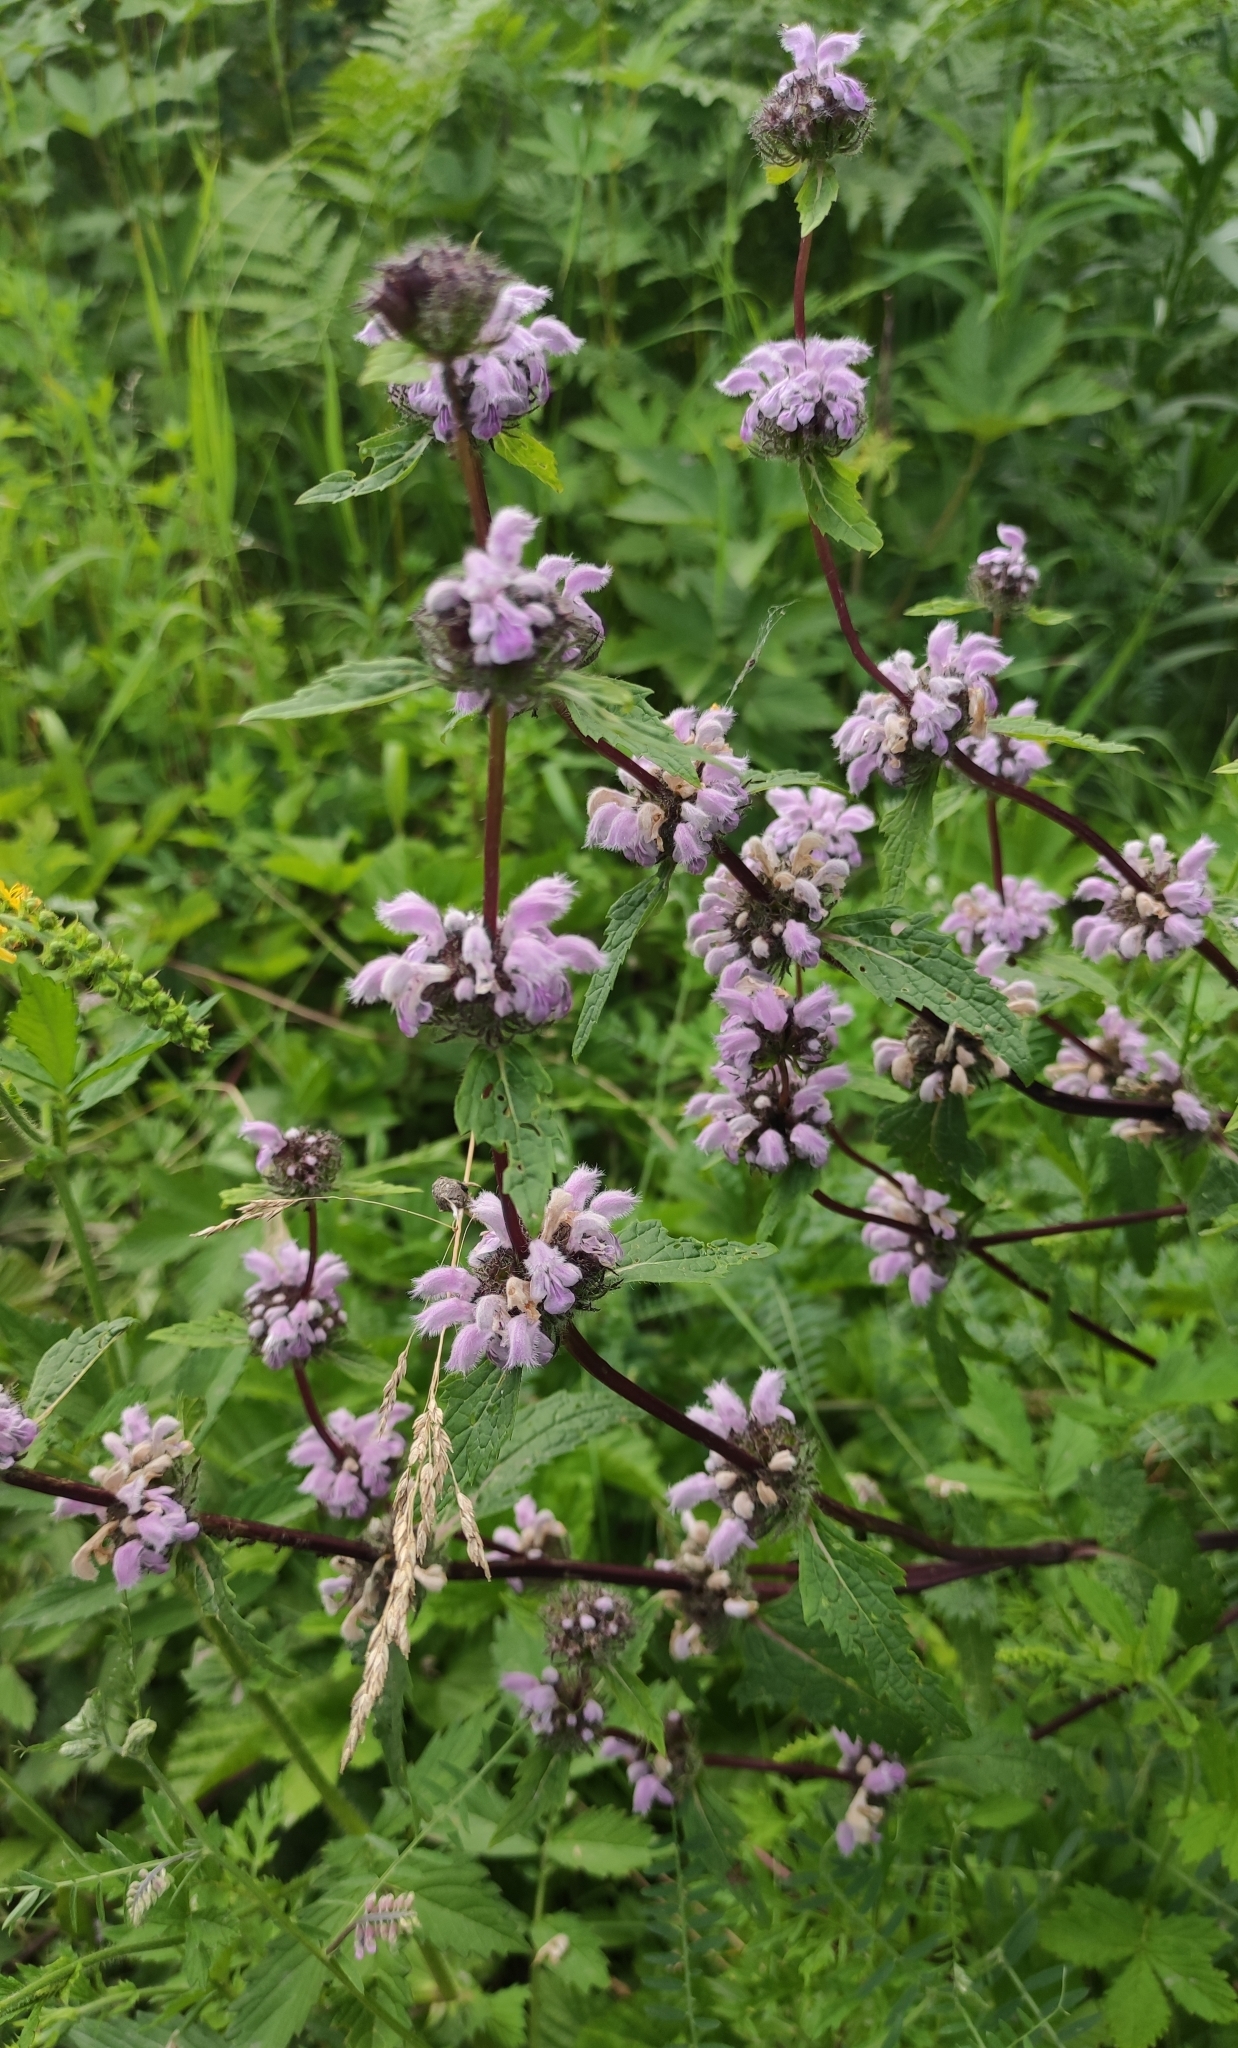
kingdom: Plantae
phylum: Tracheophyta
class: Magnoliopsida
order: Lamiales
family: Lamiaceae
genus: Phlomoides
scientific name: Phlomoides tuberosa
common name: Tuberous jerusalem sage
